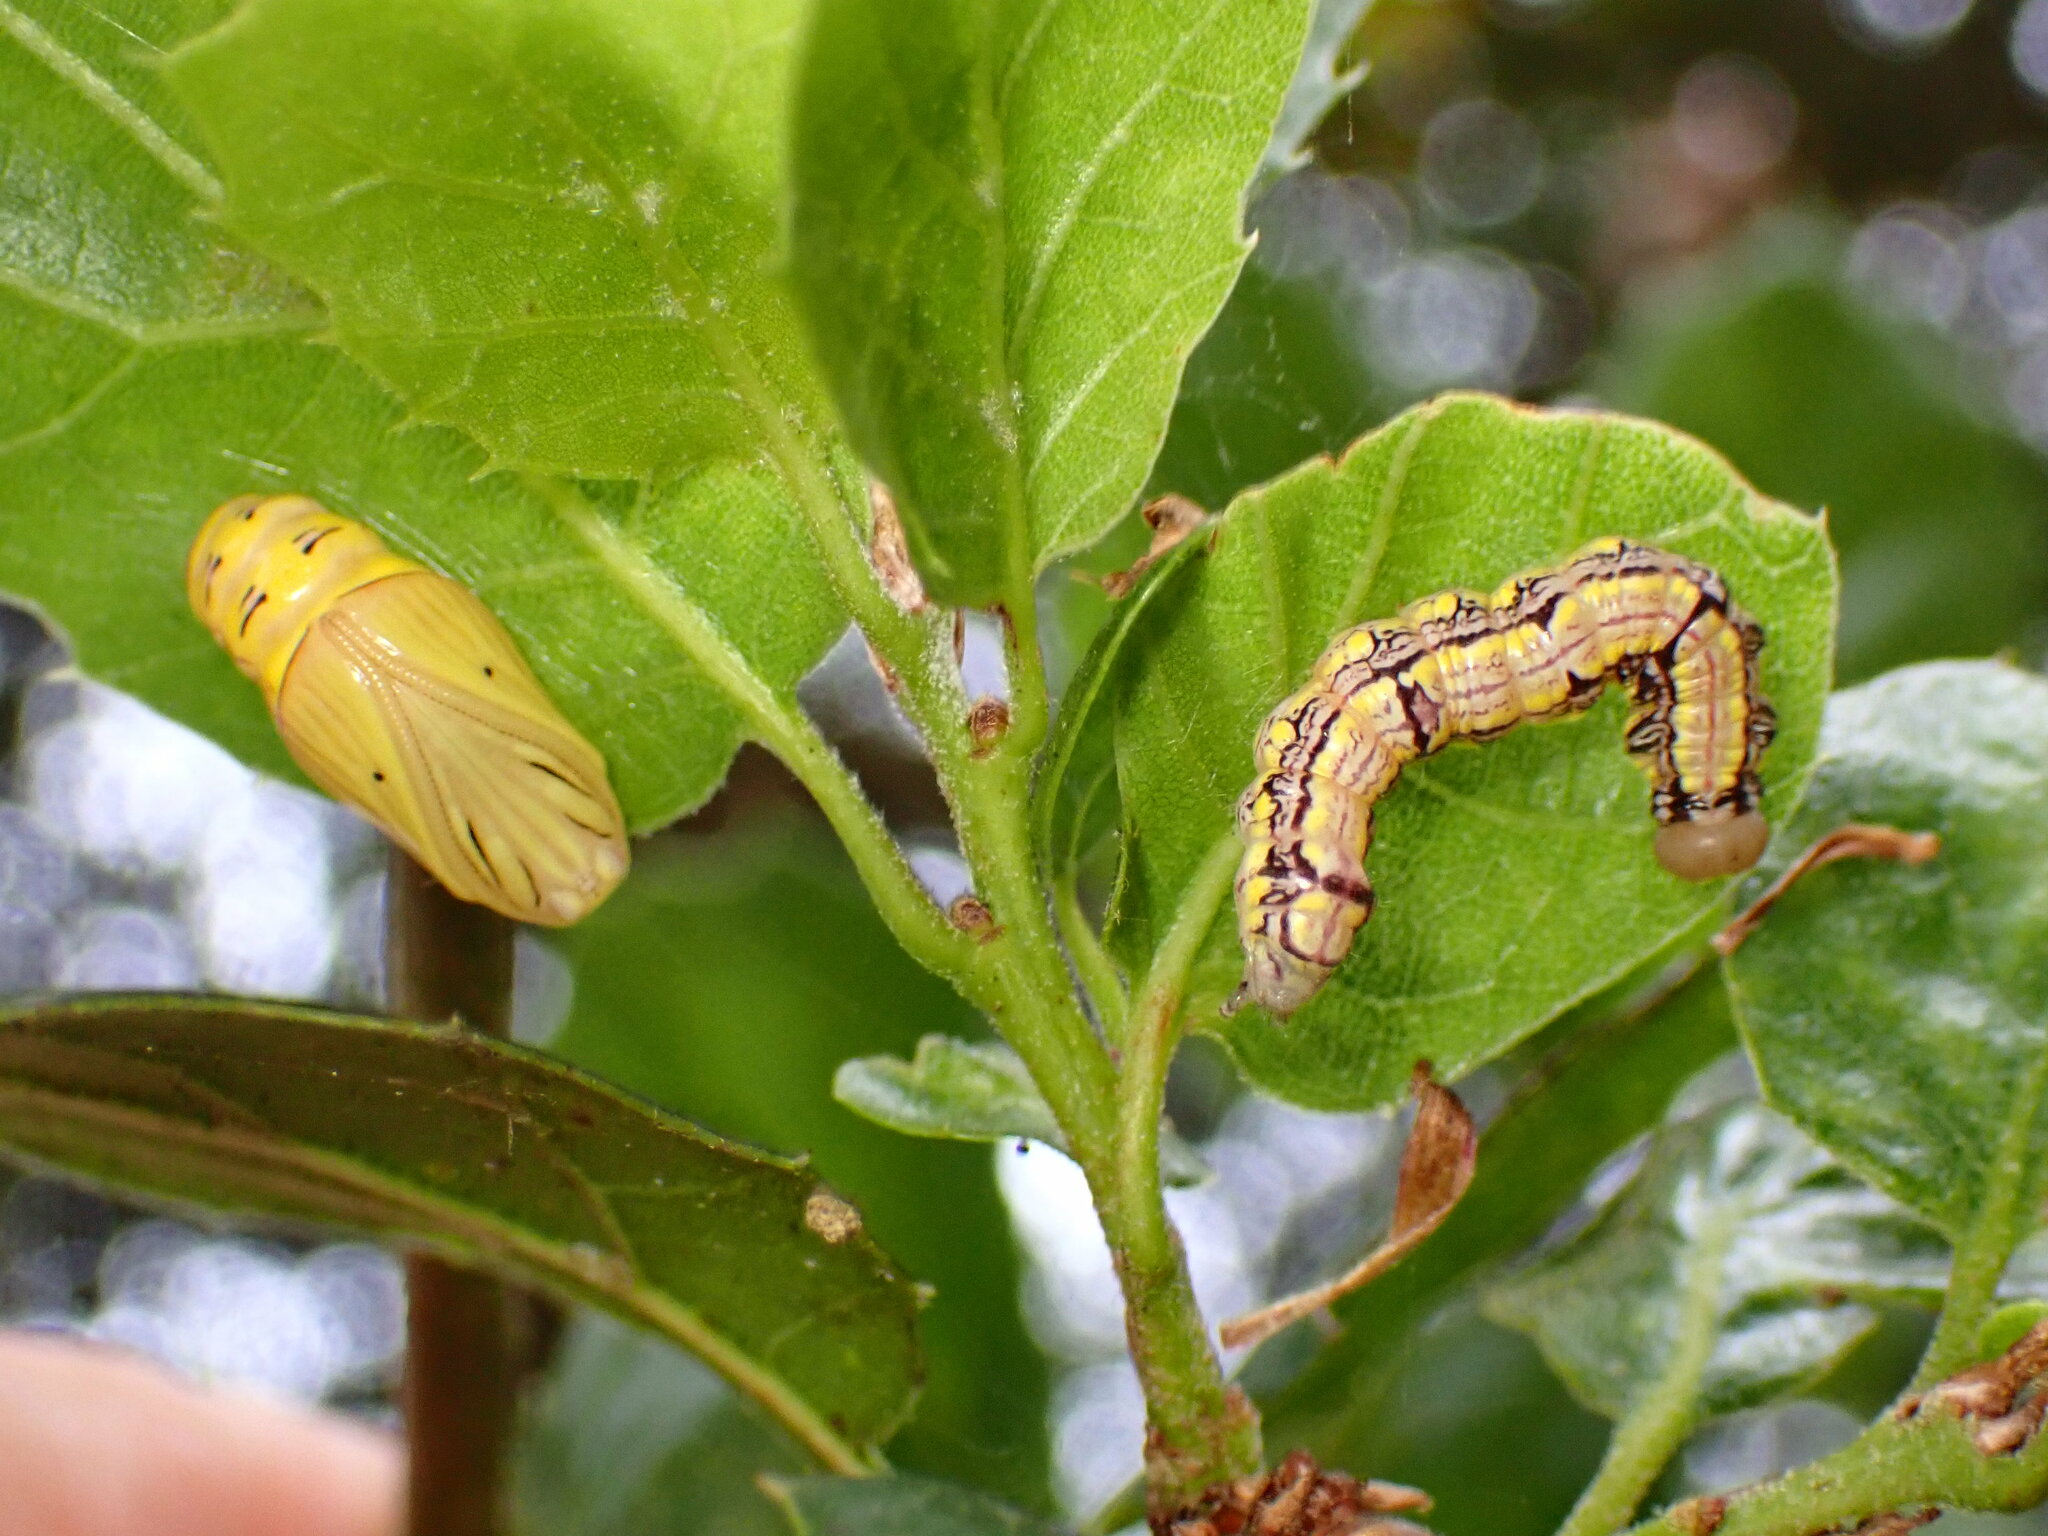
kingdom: Animalia
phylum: Arthropoda
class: Insecta
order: Lepidoptera
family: Notodontidae
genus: Phryganidia
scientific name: Phryganidia californica
